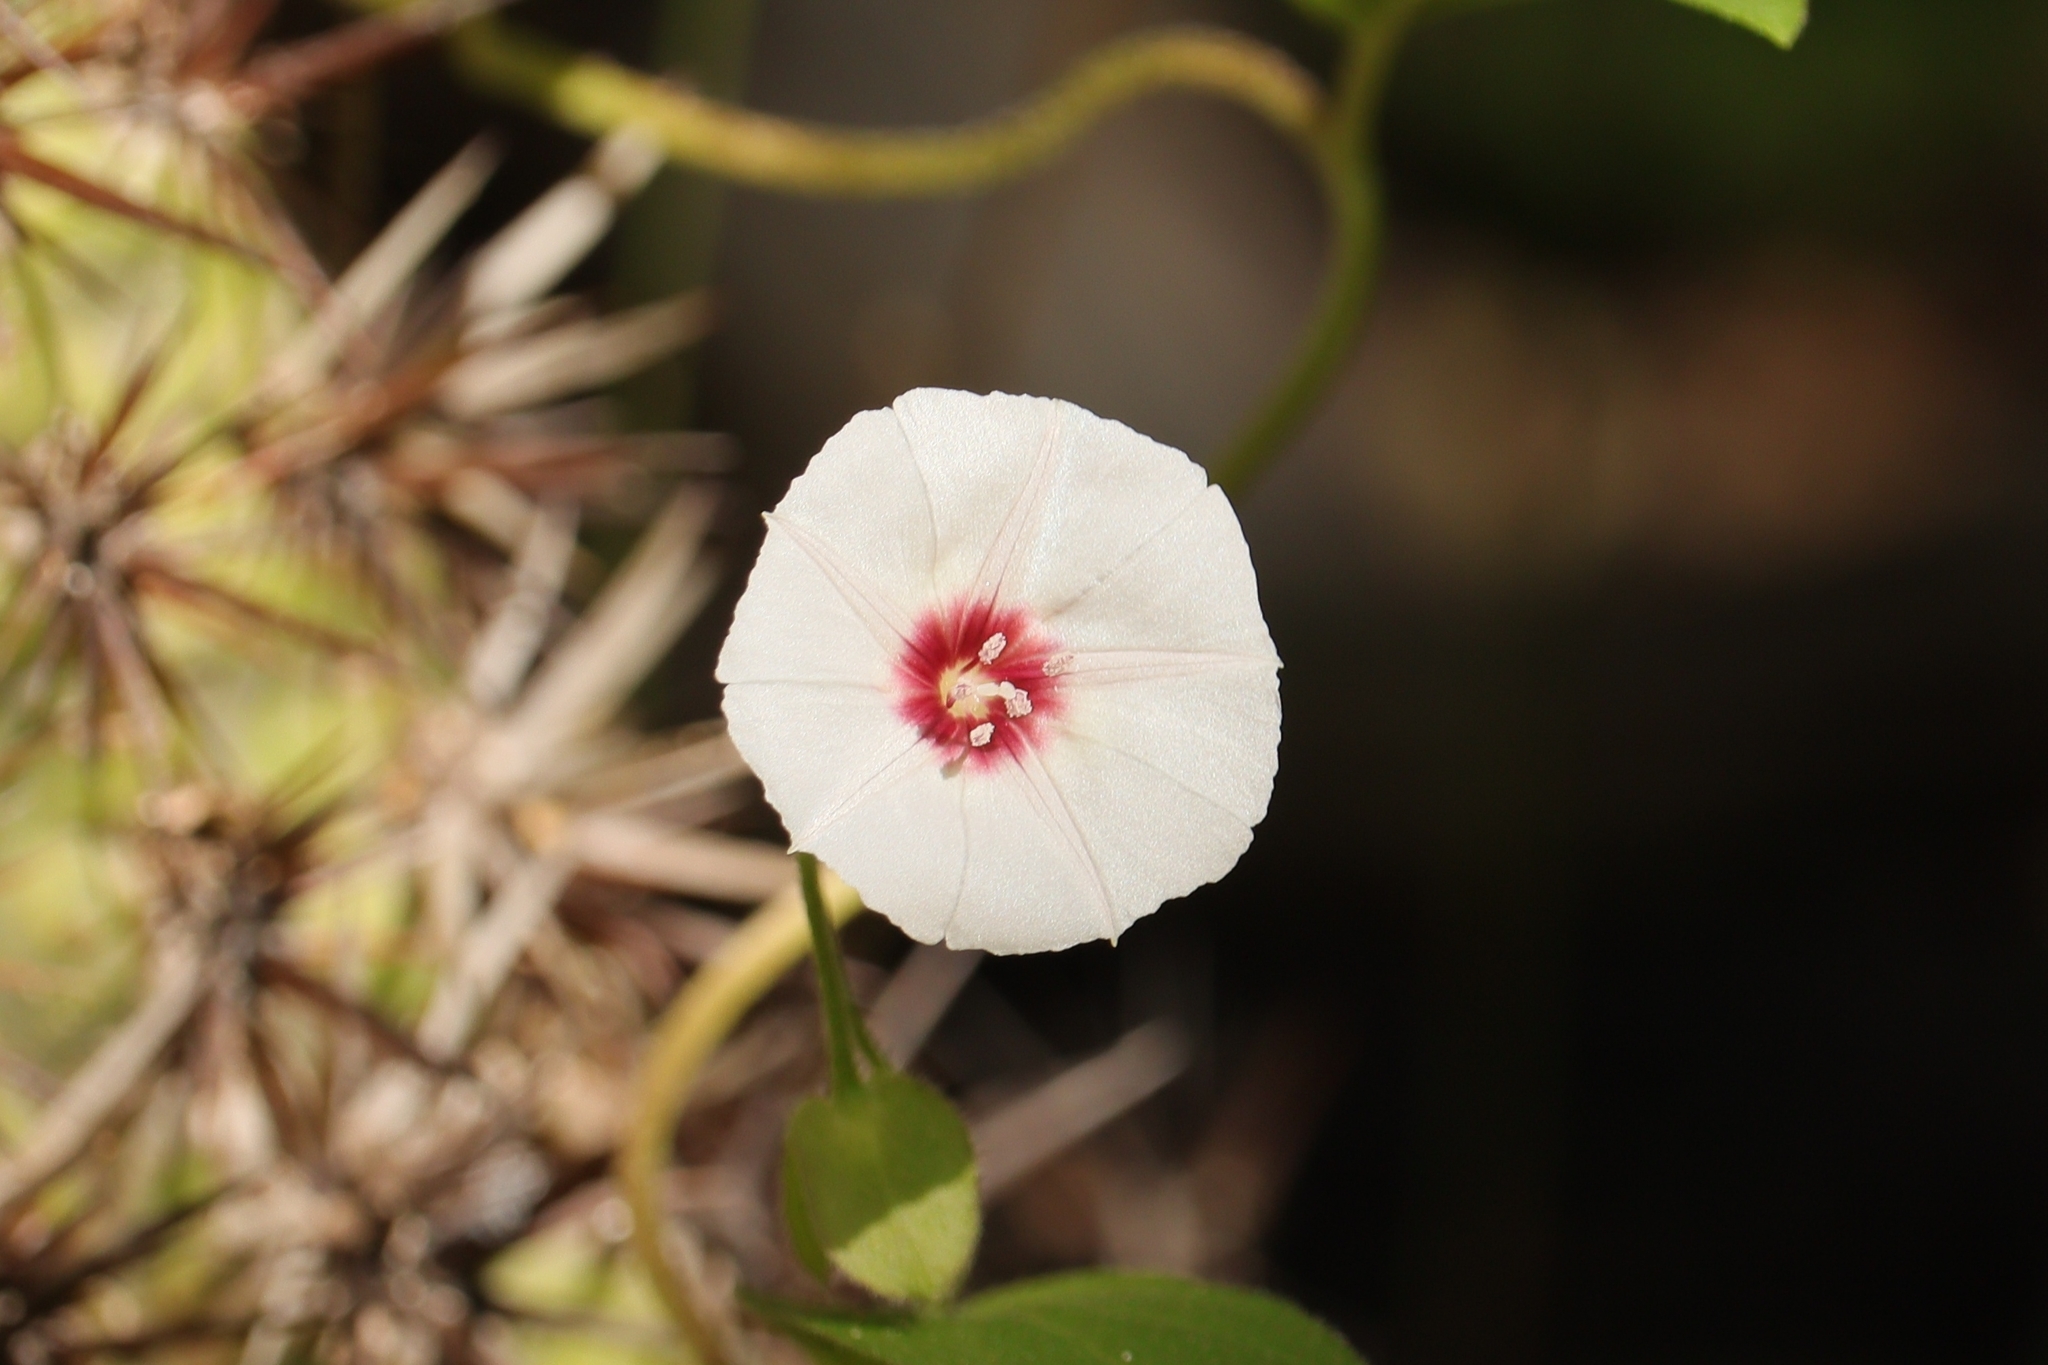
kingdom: Plantae
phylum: Tracheophyta
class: Magnoliopsida
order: Solanales
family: Convolvulaceae
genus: Jacquemontia
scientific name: Jacquemontia gracillima
